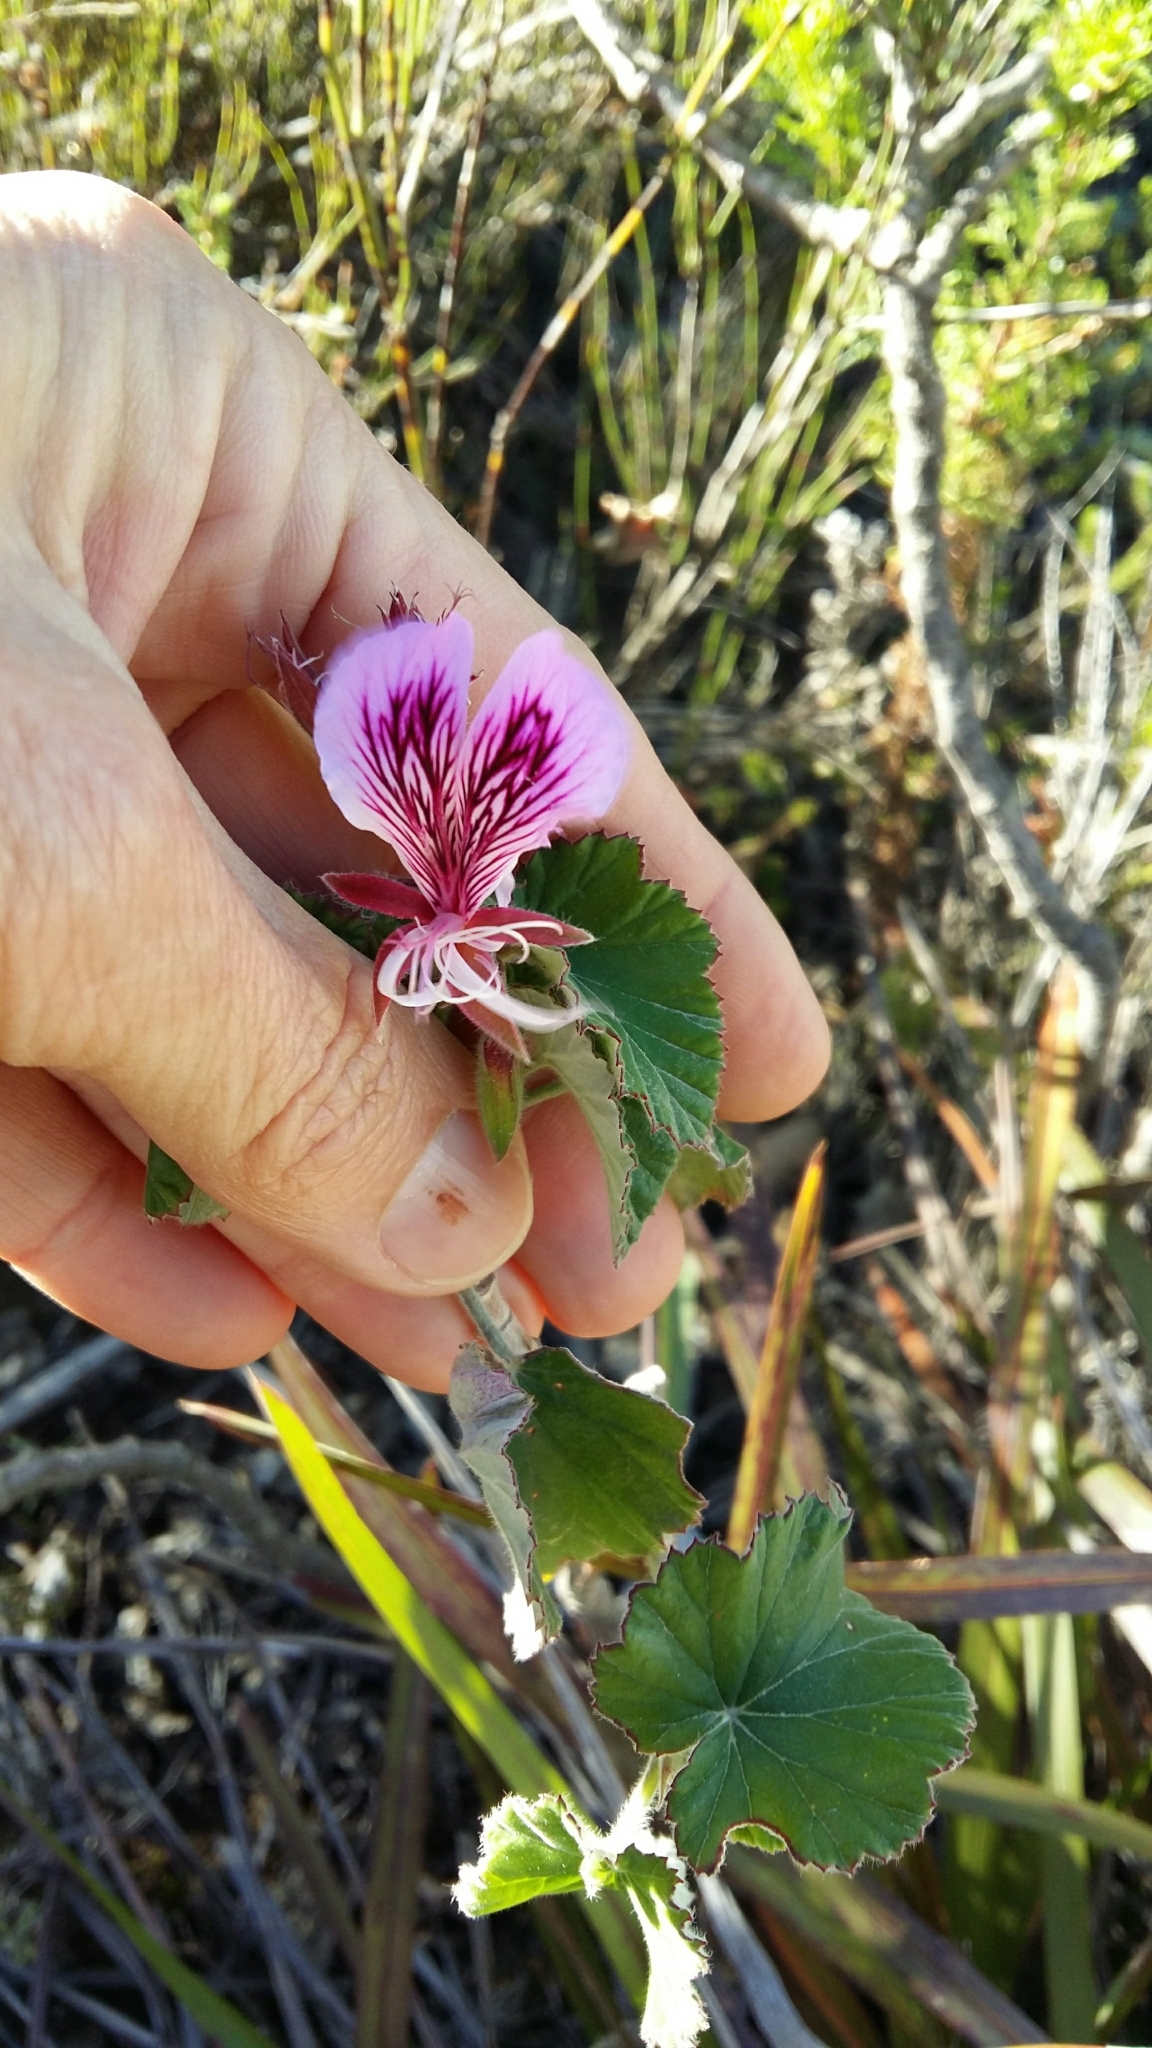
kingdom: Plantae
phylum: Tracheophyta
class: Magnoliopsida
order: Geraniales
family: Geraniaceae
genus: Pelargonium
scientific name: Pelargonium cordifolium
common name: Heart-leaf pelargonium
